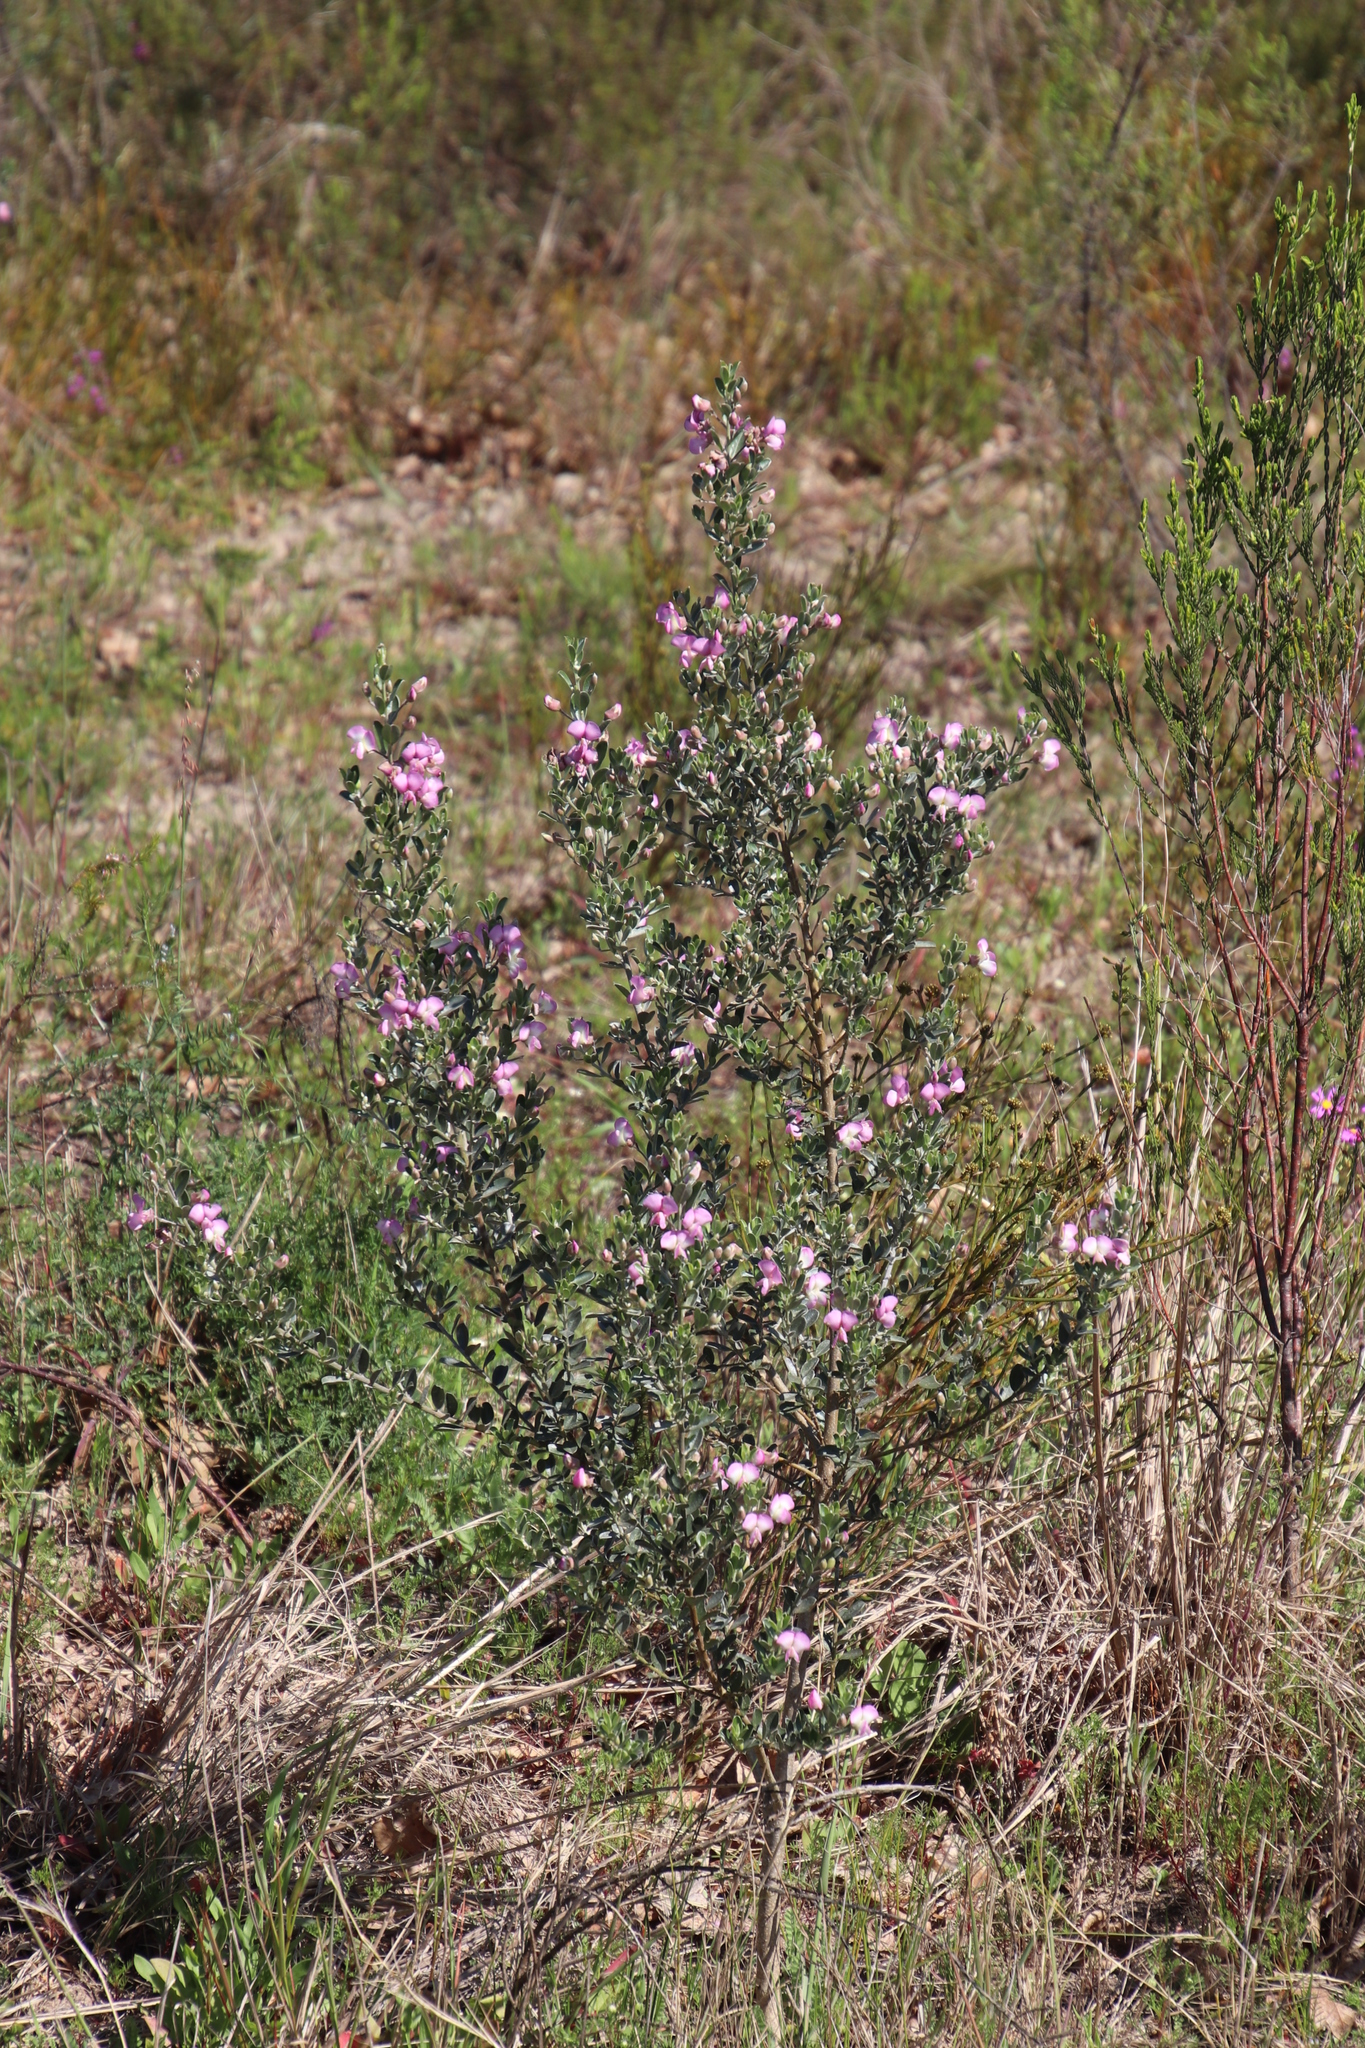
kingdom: Plantae
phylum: Tracheophyta
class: Magnoliopsida
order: Fabales
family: Fabaceae
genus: Podalyria
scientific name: Podalyria myrtillifolia
